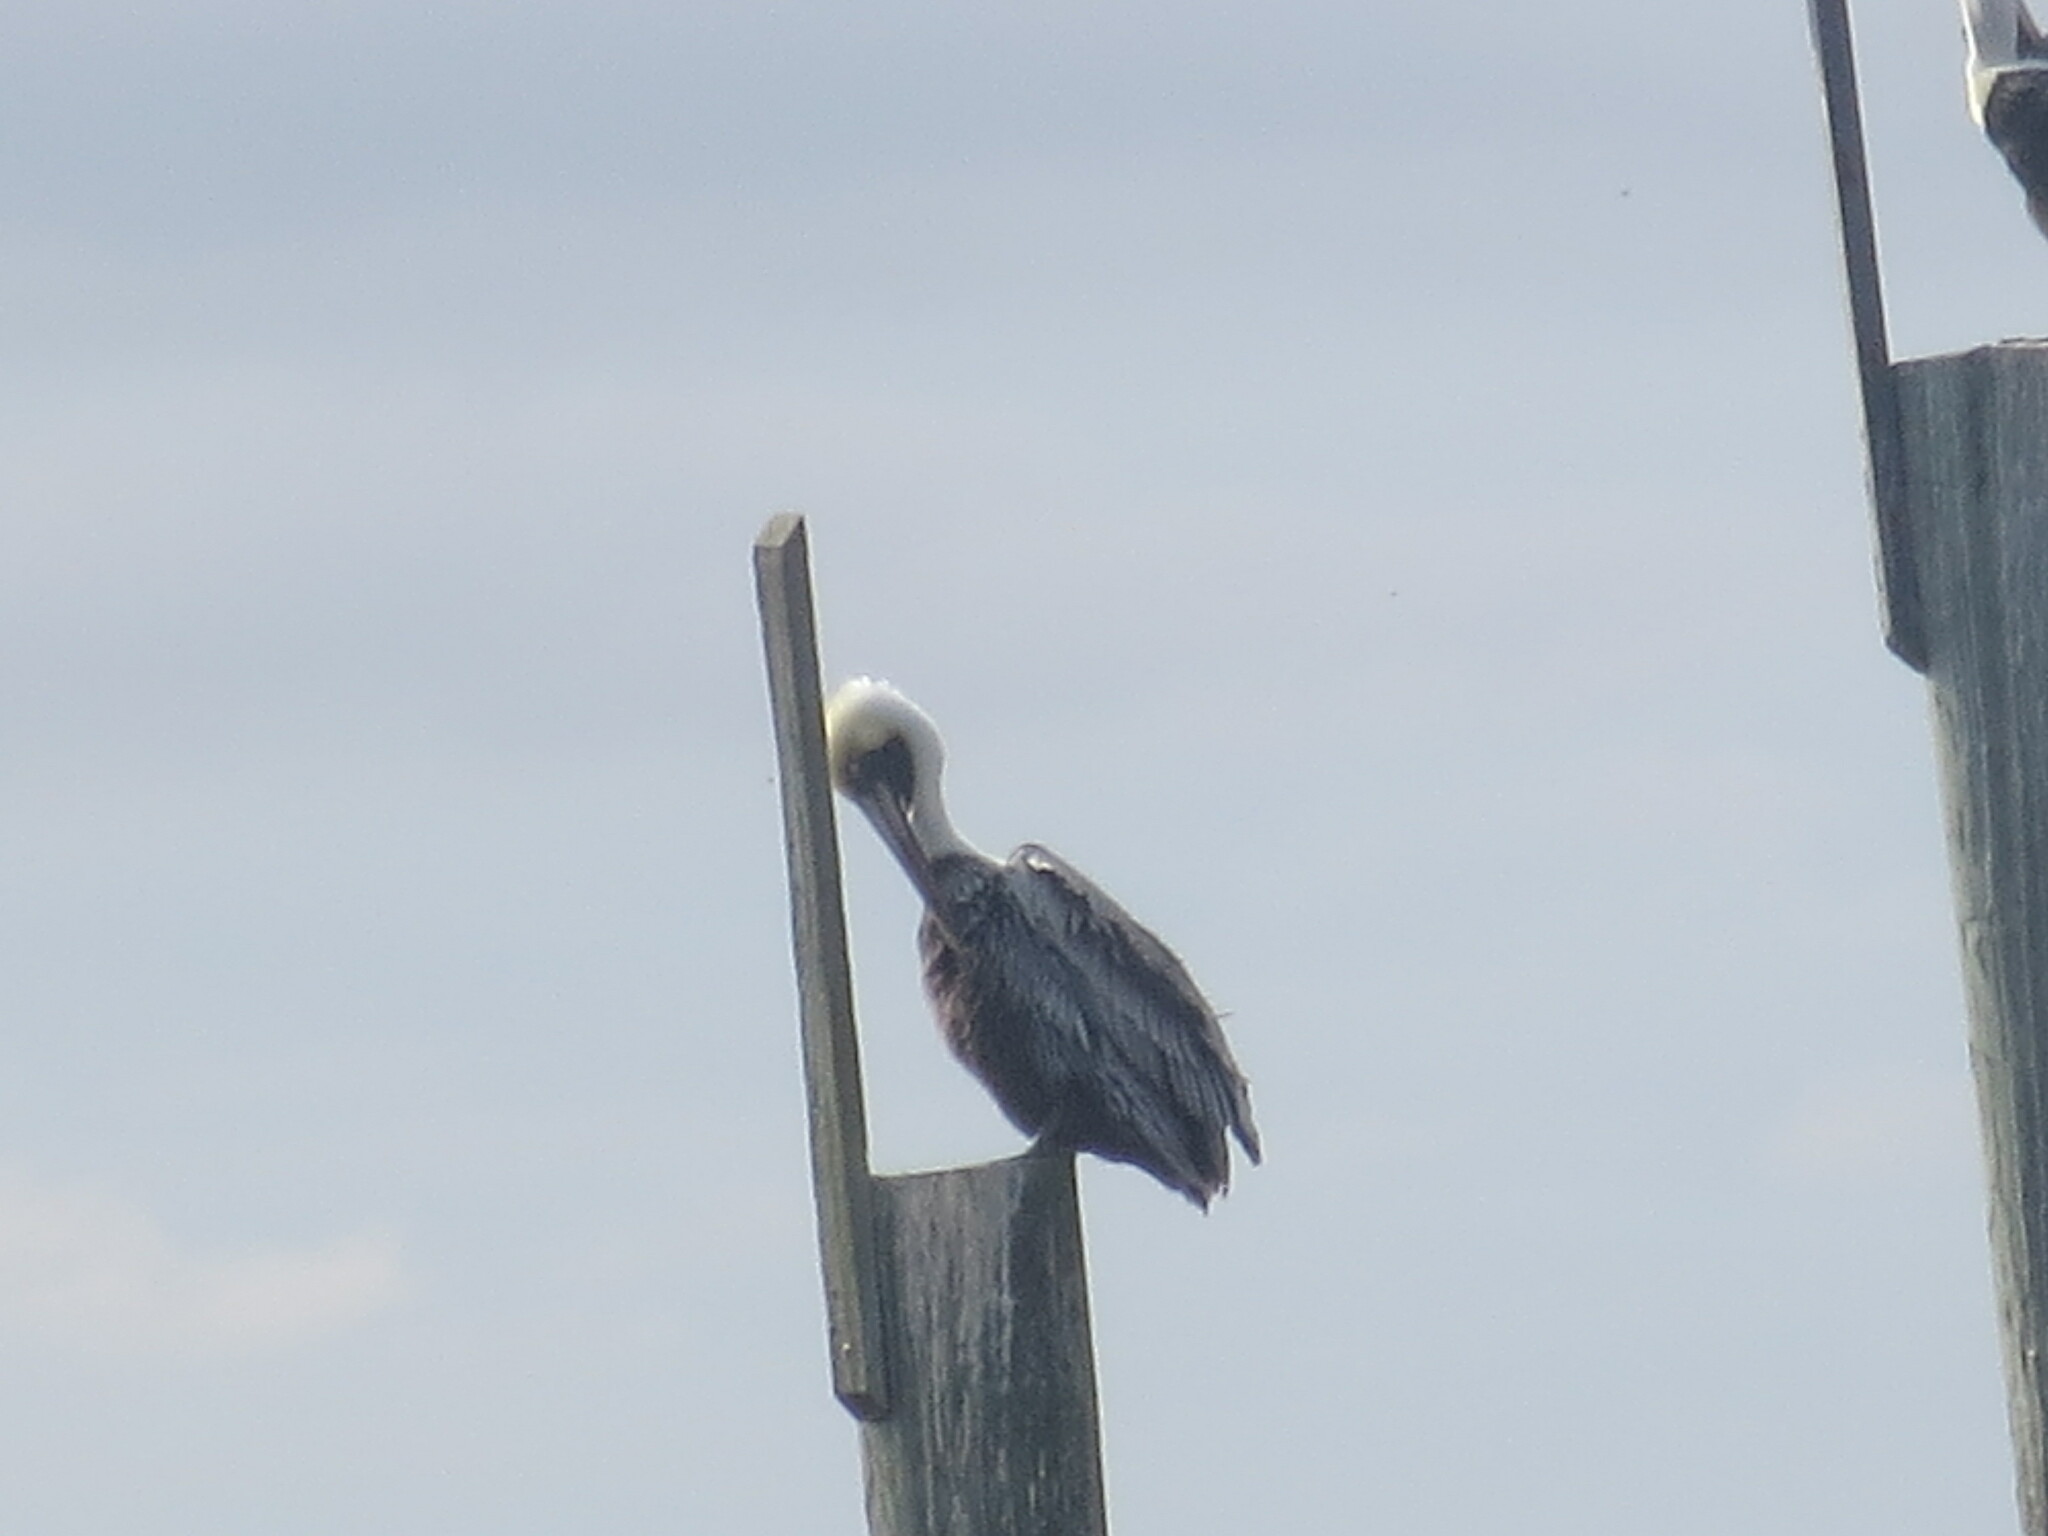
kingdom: Animalia
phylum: Chordata
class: Aves
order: Pelecaniformes
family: Pelecanidae
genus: Pelecanus
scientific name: Pelecanus occidentalis
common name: Brown pelican
